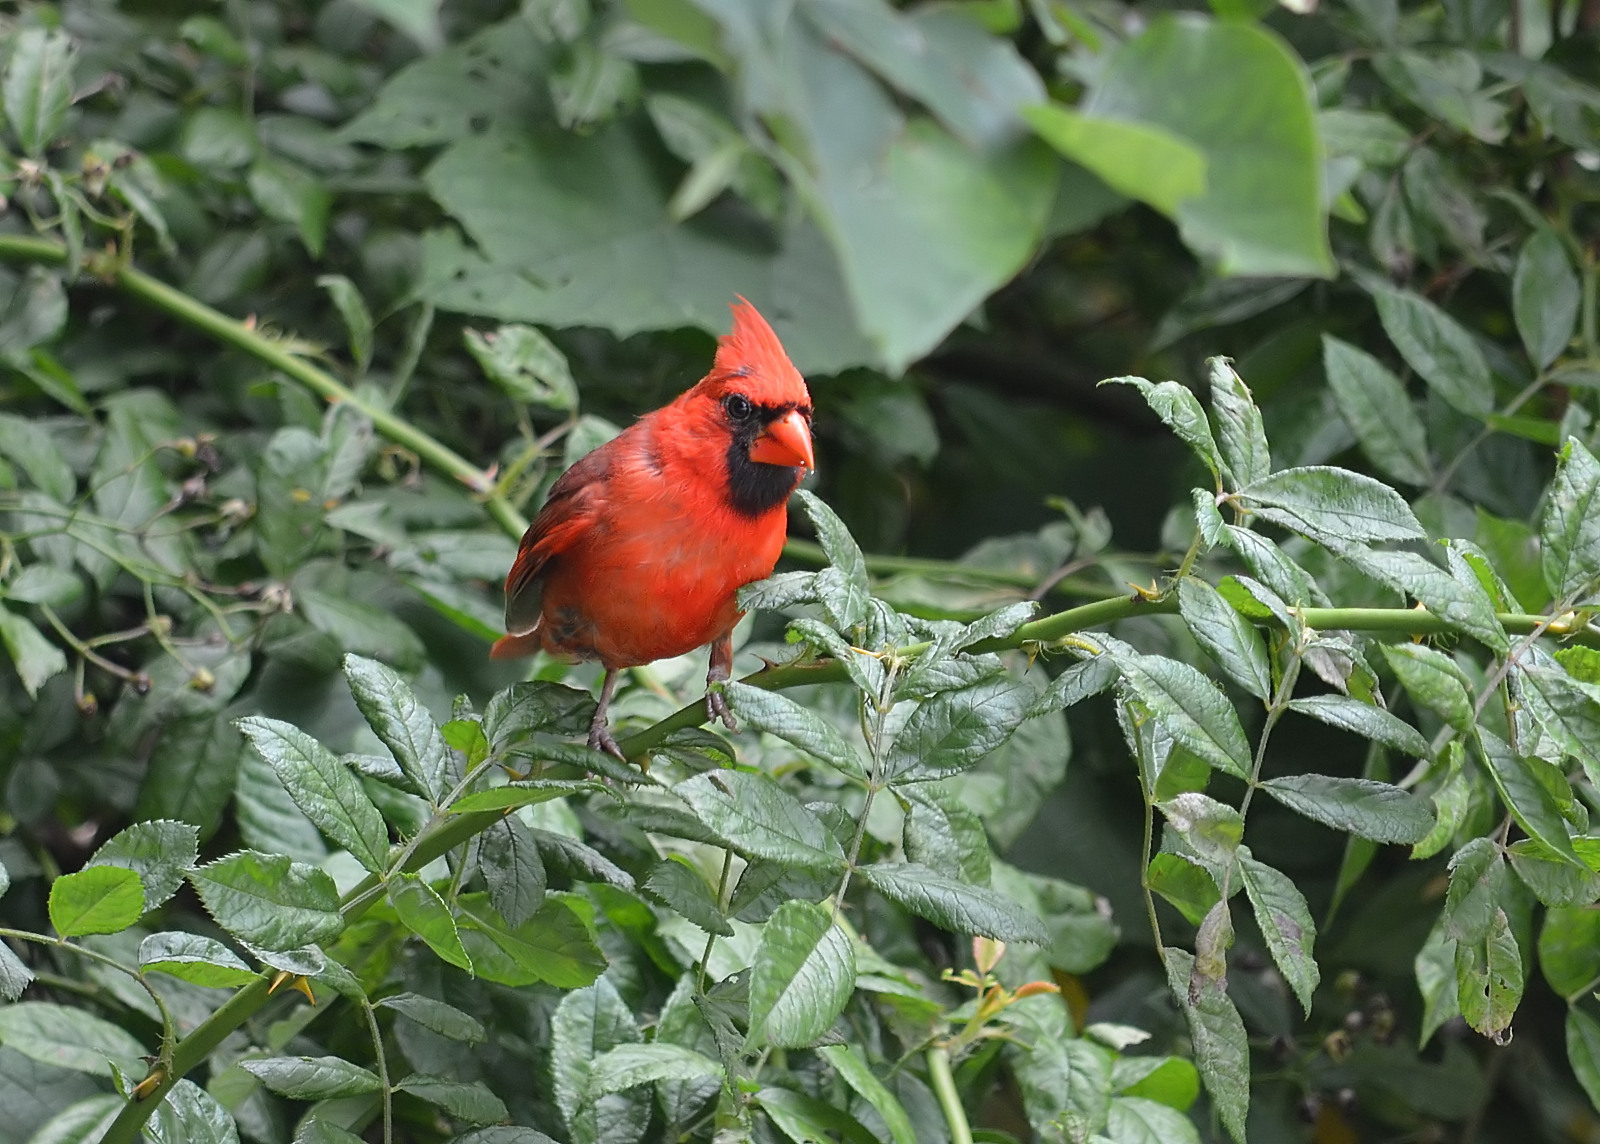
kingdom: Animalia
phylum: Chordata
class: Aves
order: Passeriformes
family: Cardinalidae
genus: Cardinalis
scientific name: Cardinalis cardinalis
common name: Northern cardinal
